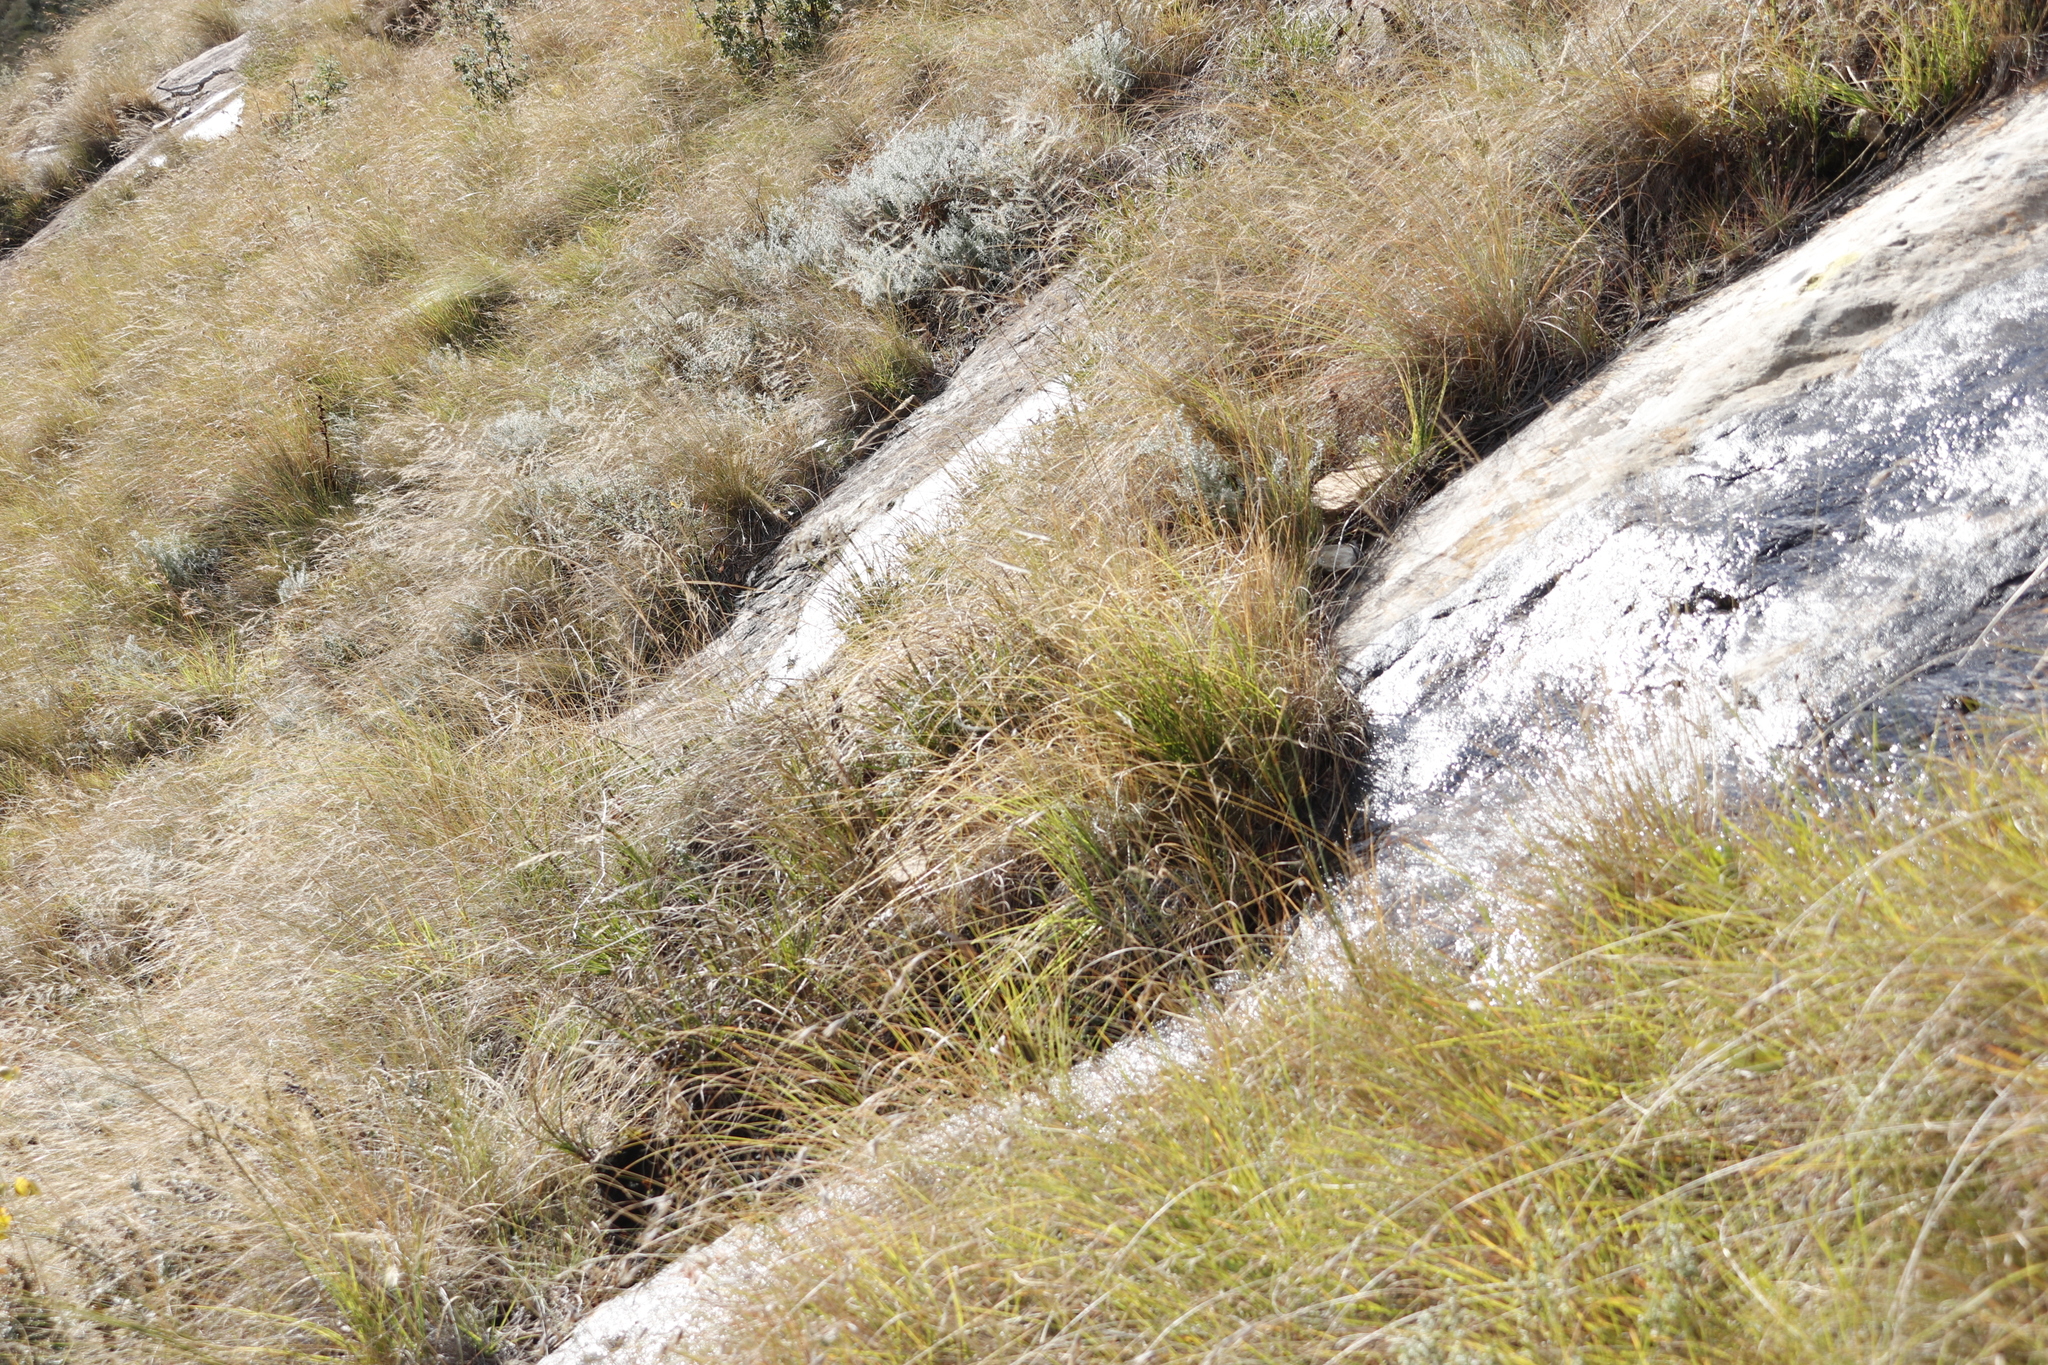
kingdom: Plantae
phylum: Tracheophyta
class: Liliopsida
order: Poales
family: Poaceae
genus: Themeda
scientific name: Themeda triandra
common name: Kangaroo grass
